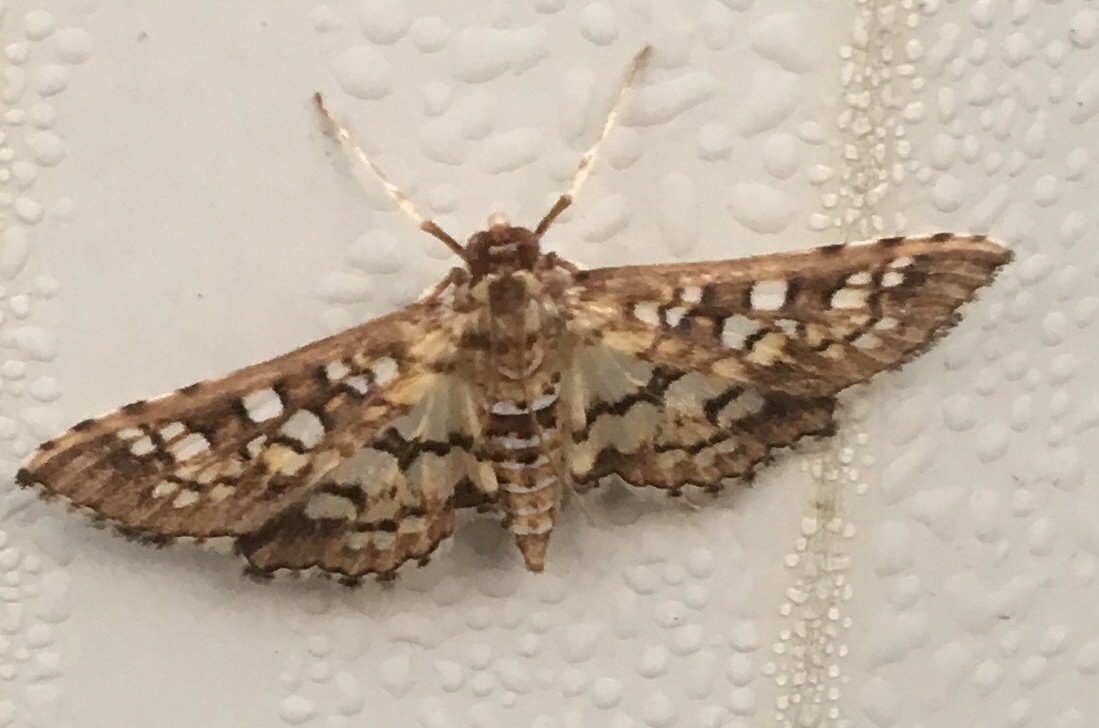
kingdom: Animalia
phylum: Arthropoda
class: Insecta
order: Lepidoptera
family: Crambidae
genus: Samea
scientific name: Samea ecclesialis
